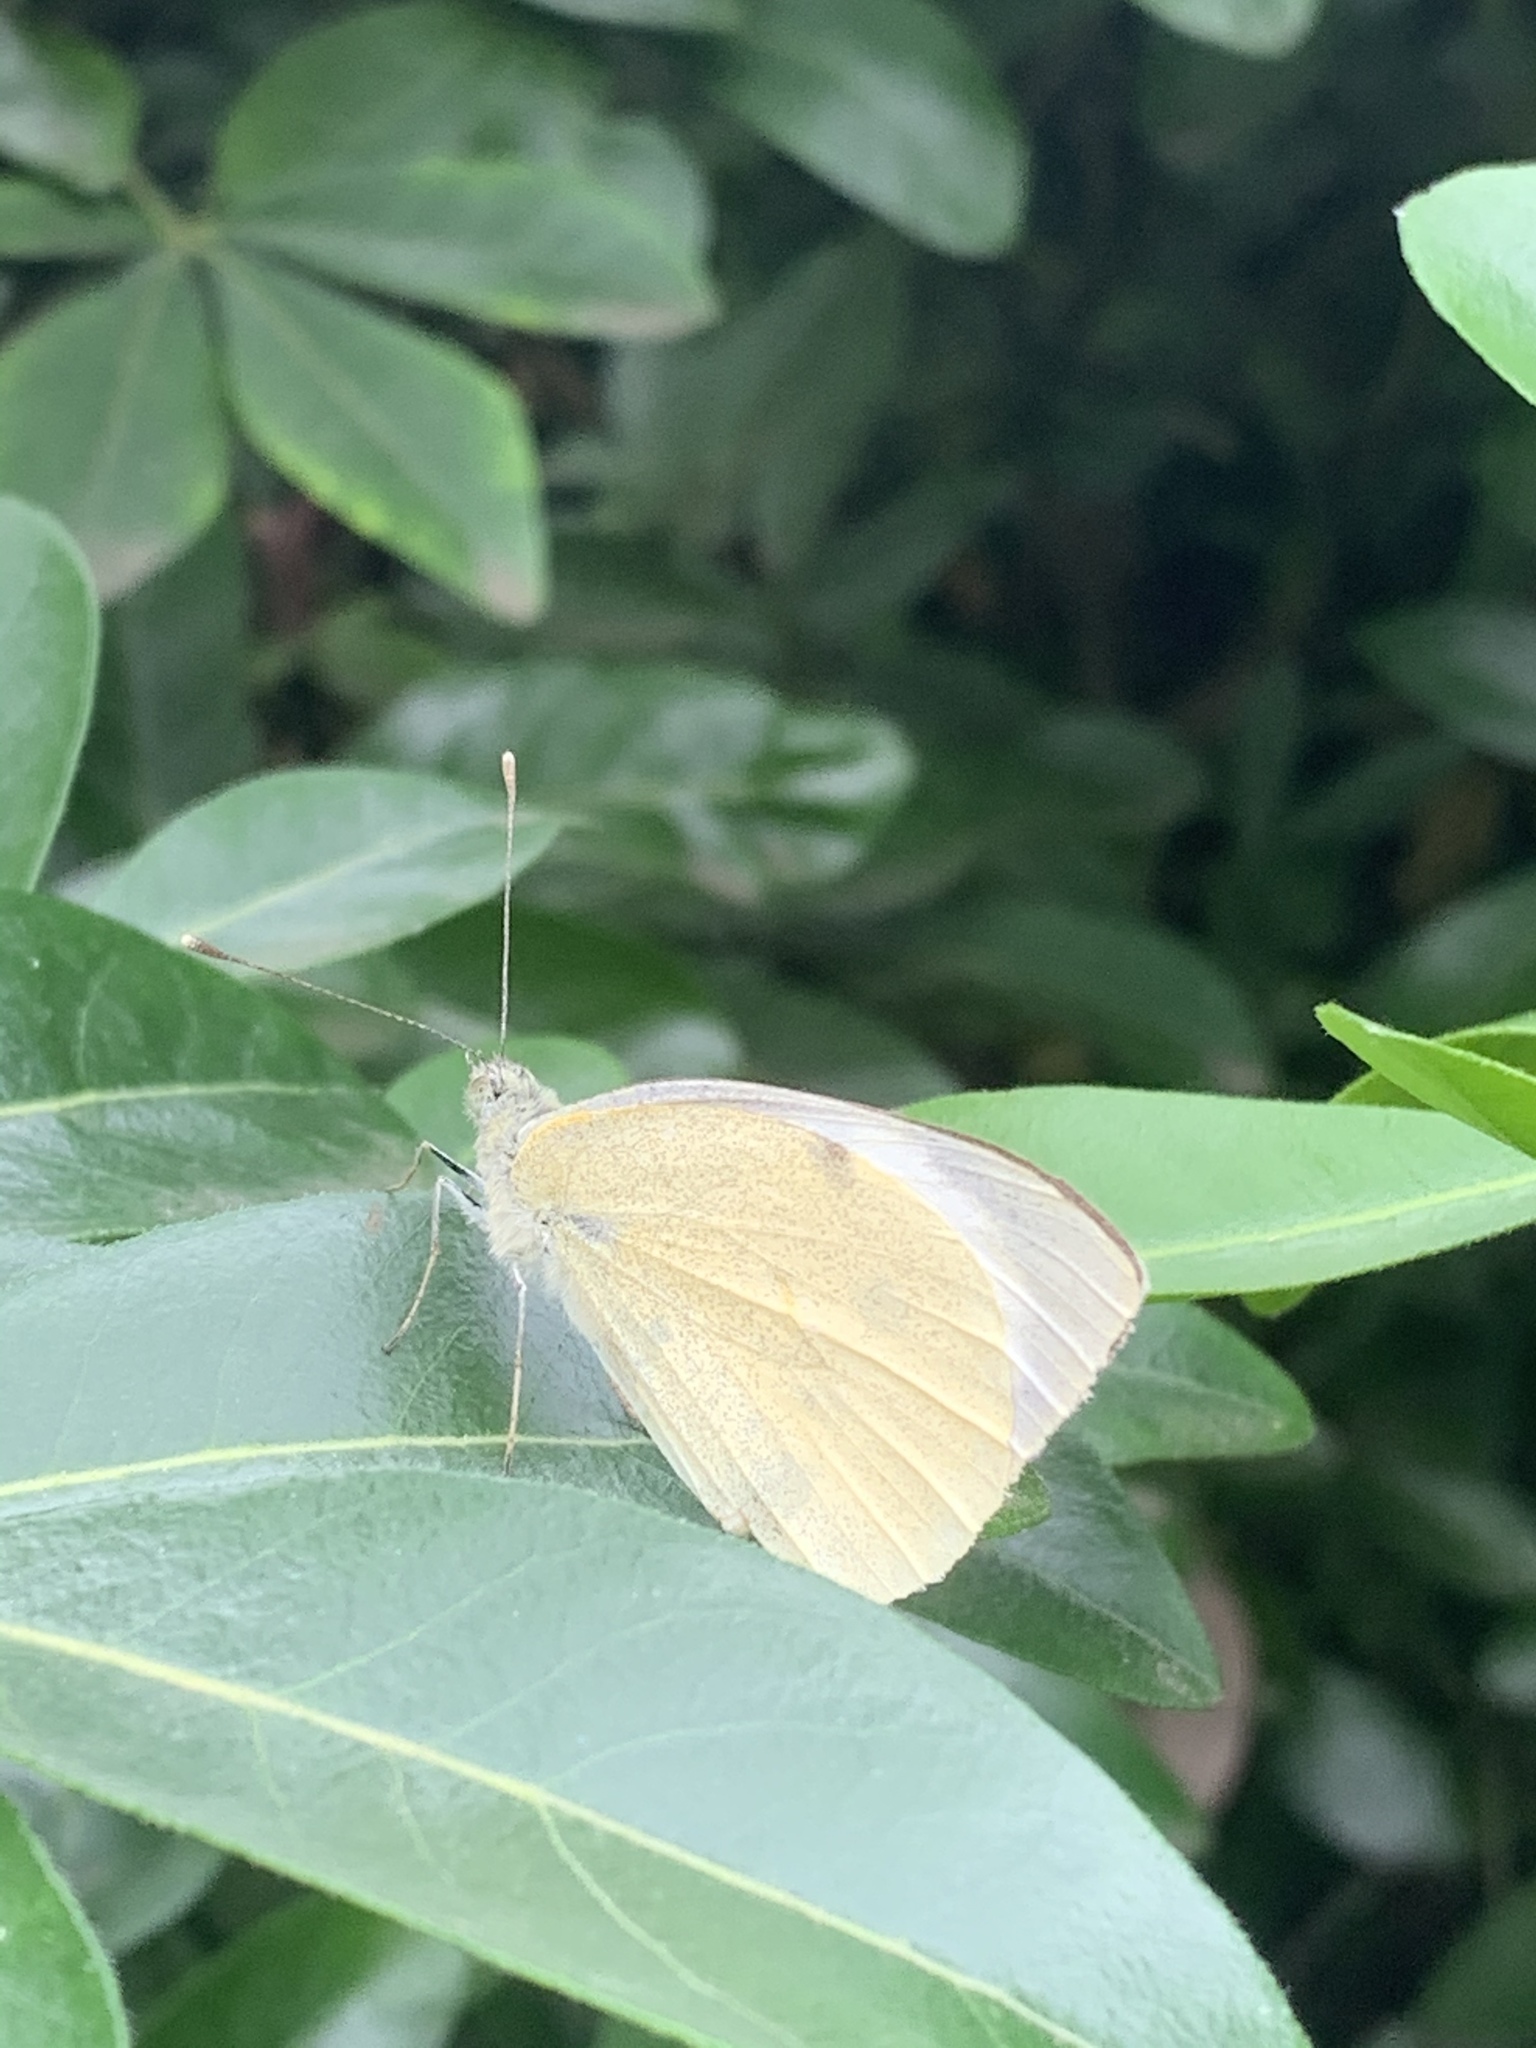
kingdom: Animalia
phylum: Arthropoda
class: Insecta
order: Lepidoptera
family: Pieridae
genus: Pieris
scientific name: Pieris brassicae
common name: Large white
